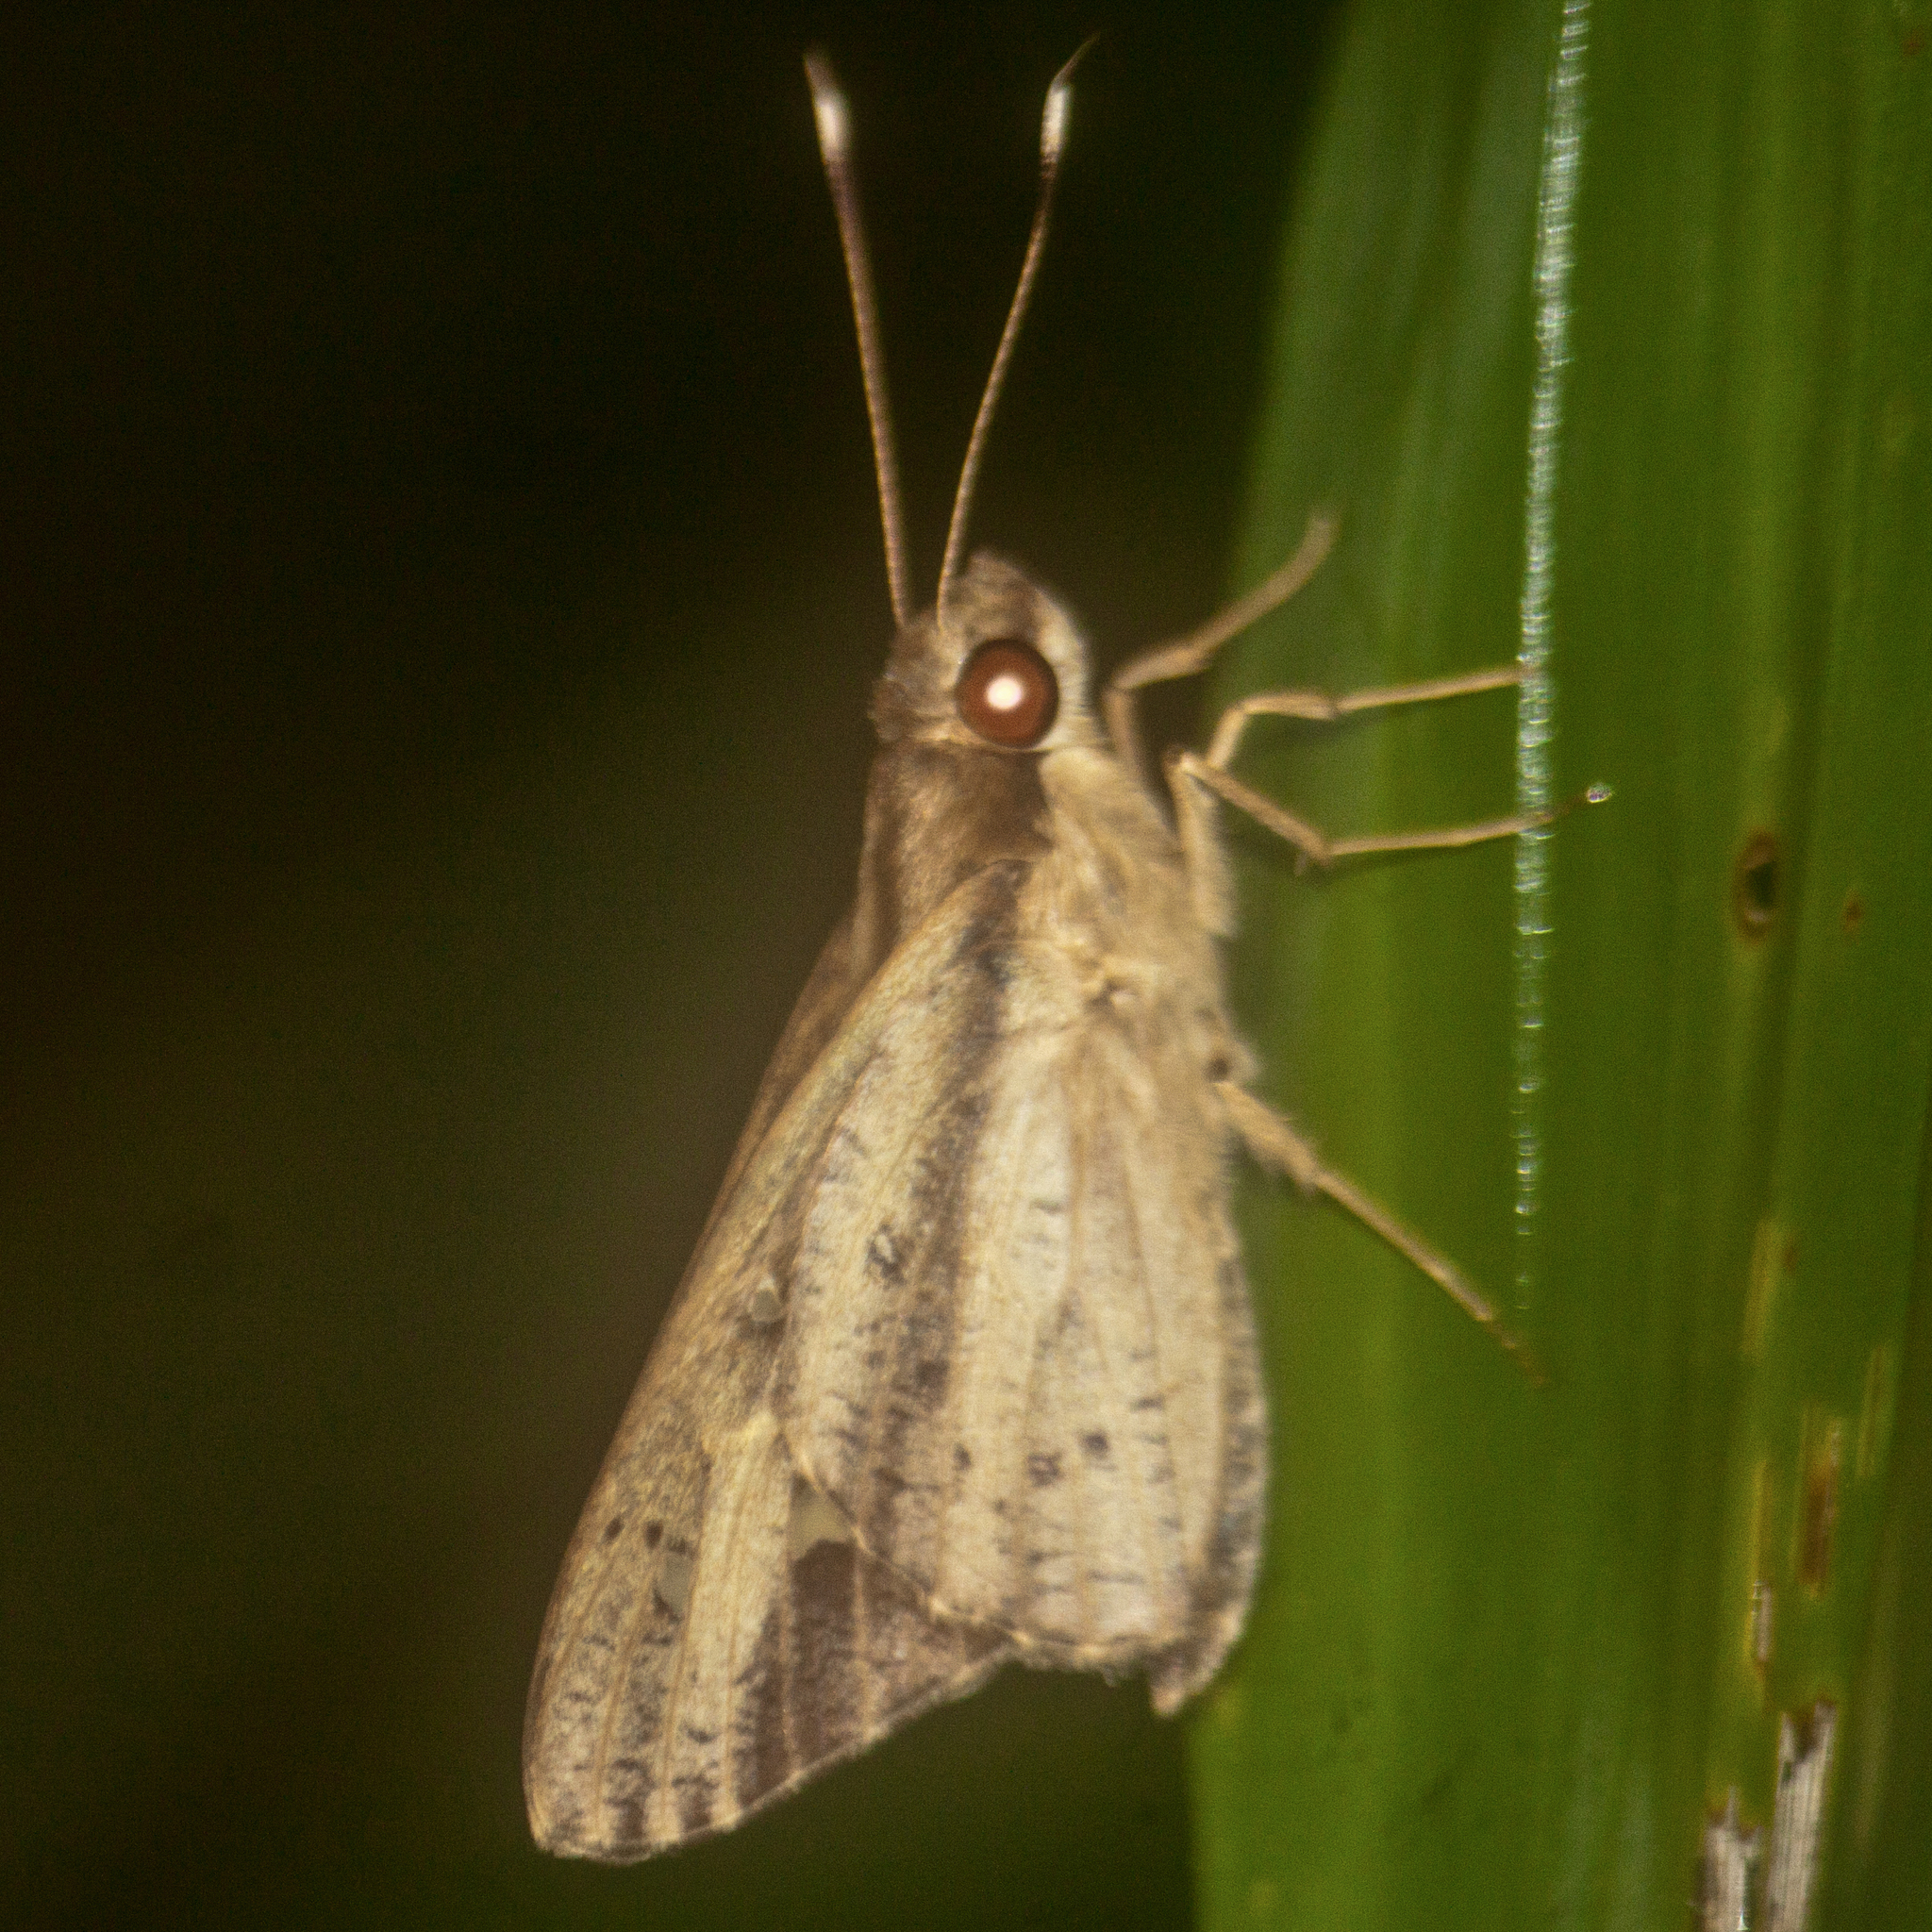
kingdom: Animalia
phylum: Arthropoda
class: Insecta
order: Lepidoptera
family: Hesperiidae
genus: Hidari
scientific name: Hidari bhawani
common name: Veined palmer
